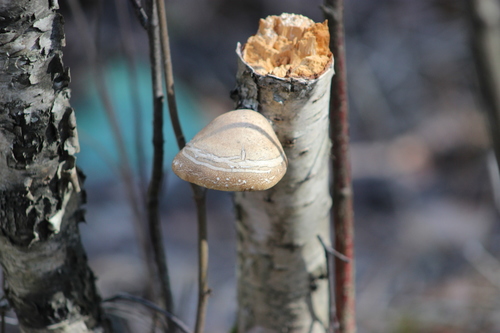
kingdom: Fungi
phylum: Basidiomycota
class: Agaricomycetes
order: Polyporales
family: Fomitopsidaceae
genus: Fomitopsis
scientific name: Fomitopsis betulina
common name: Birch polypore
